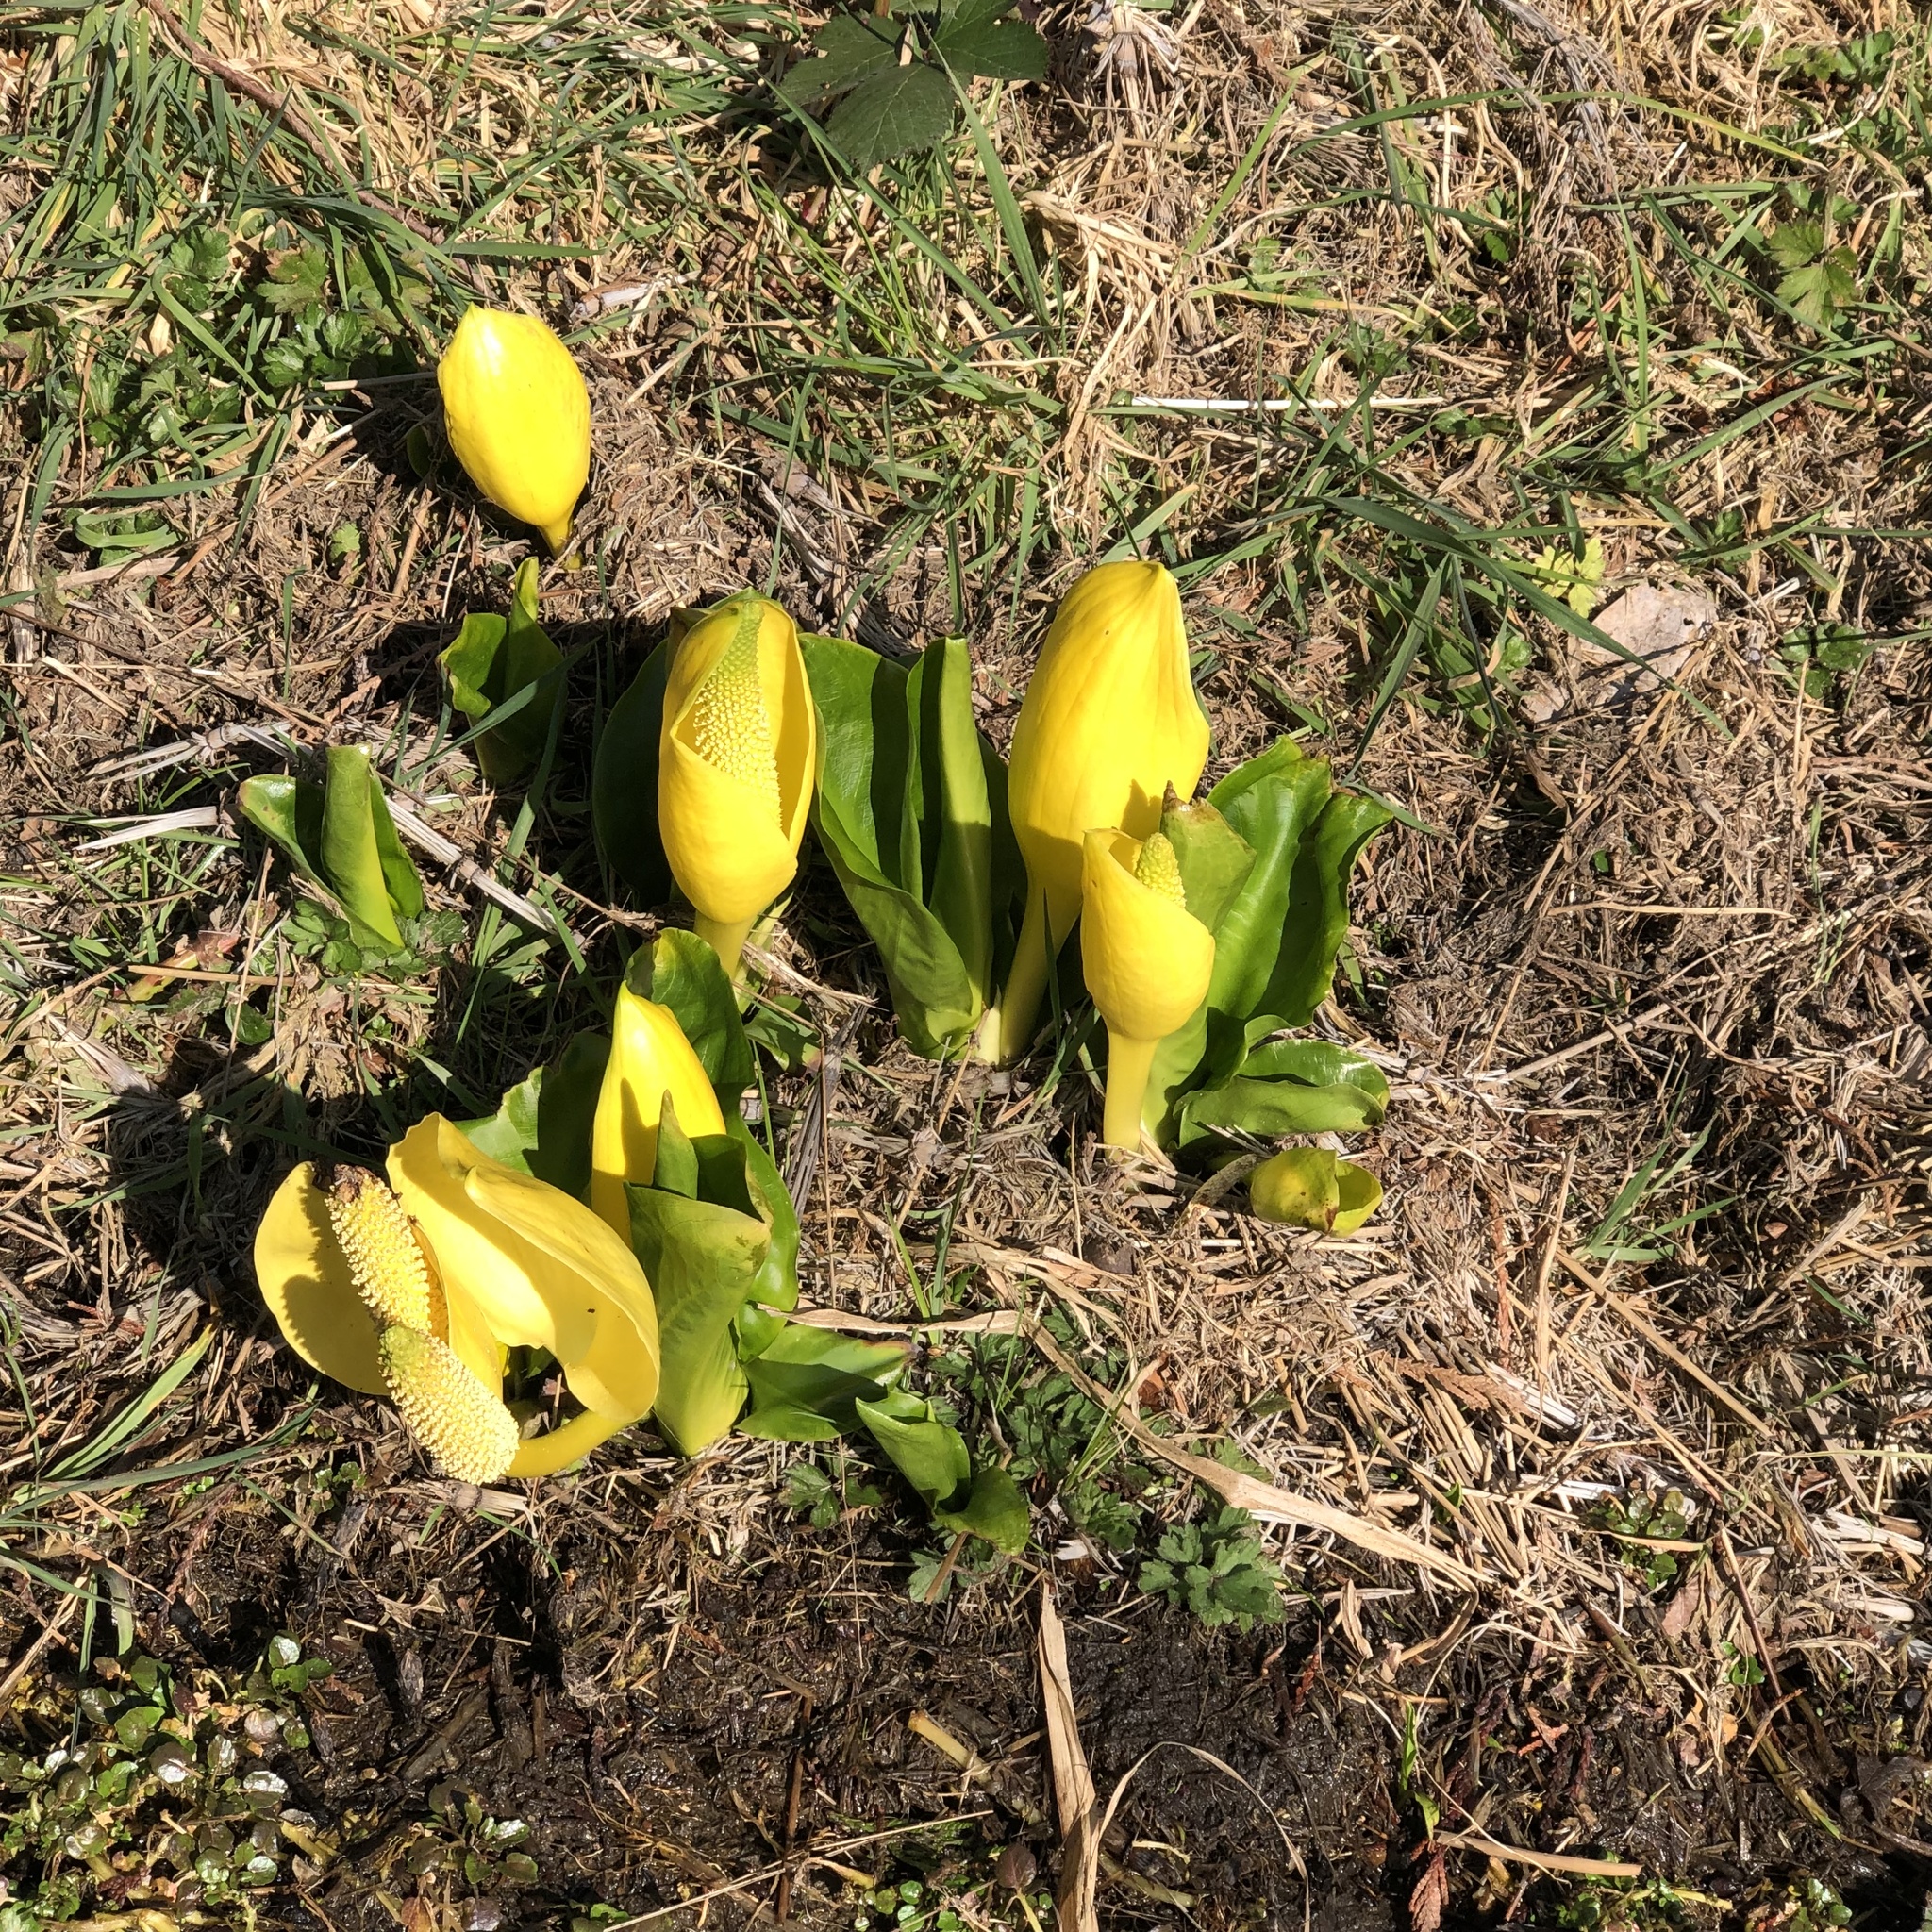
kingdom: Plantae
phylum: Tracheophyta
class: Liliopsida
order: Alismatales
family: Araceae
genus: Lysichiton
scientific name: Lysichiton americanus
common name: American skunk cabbage
